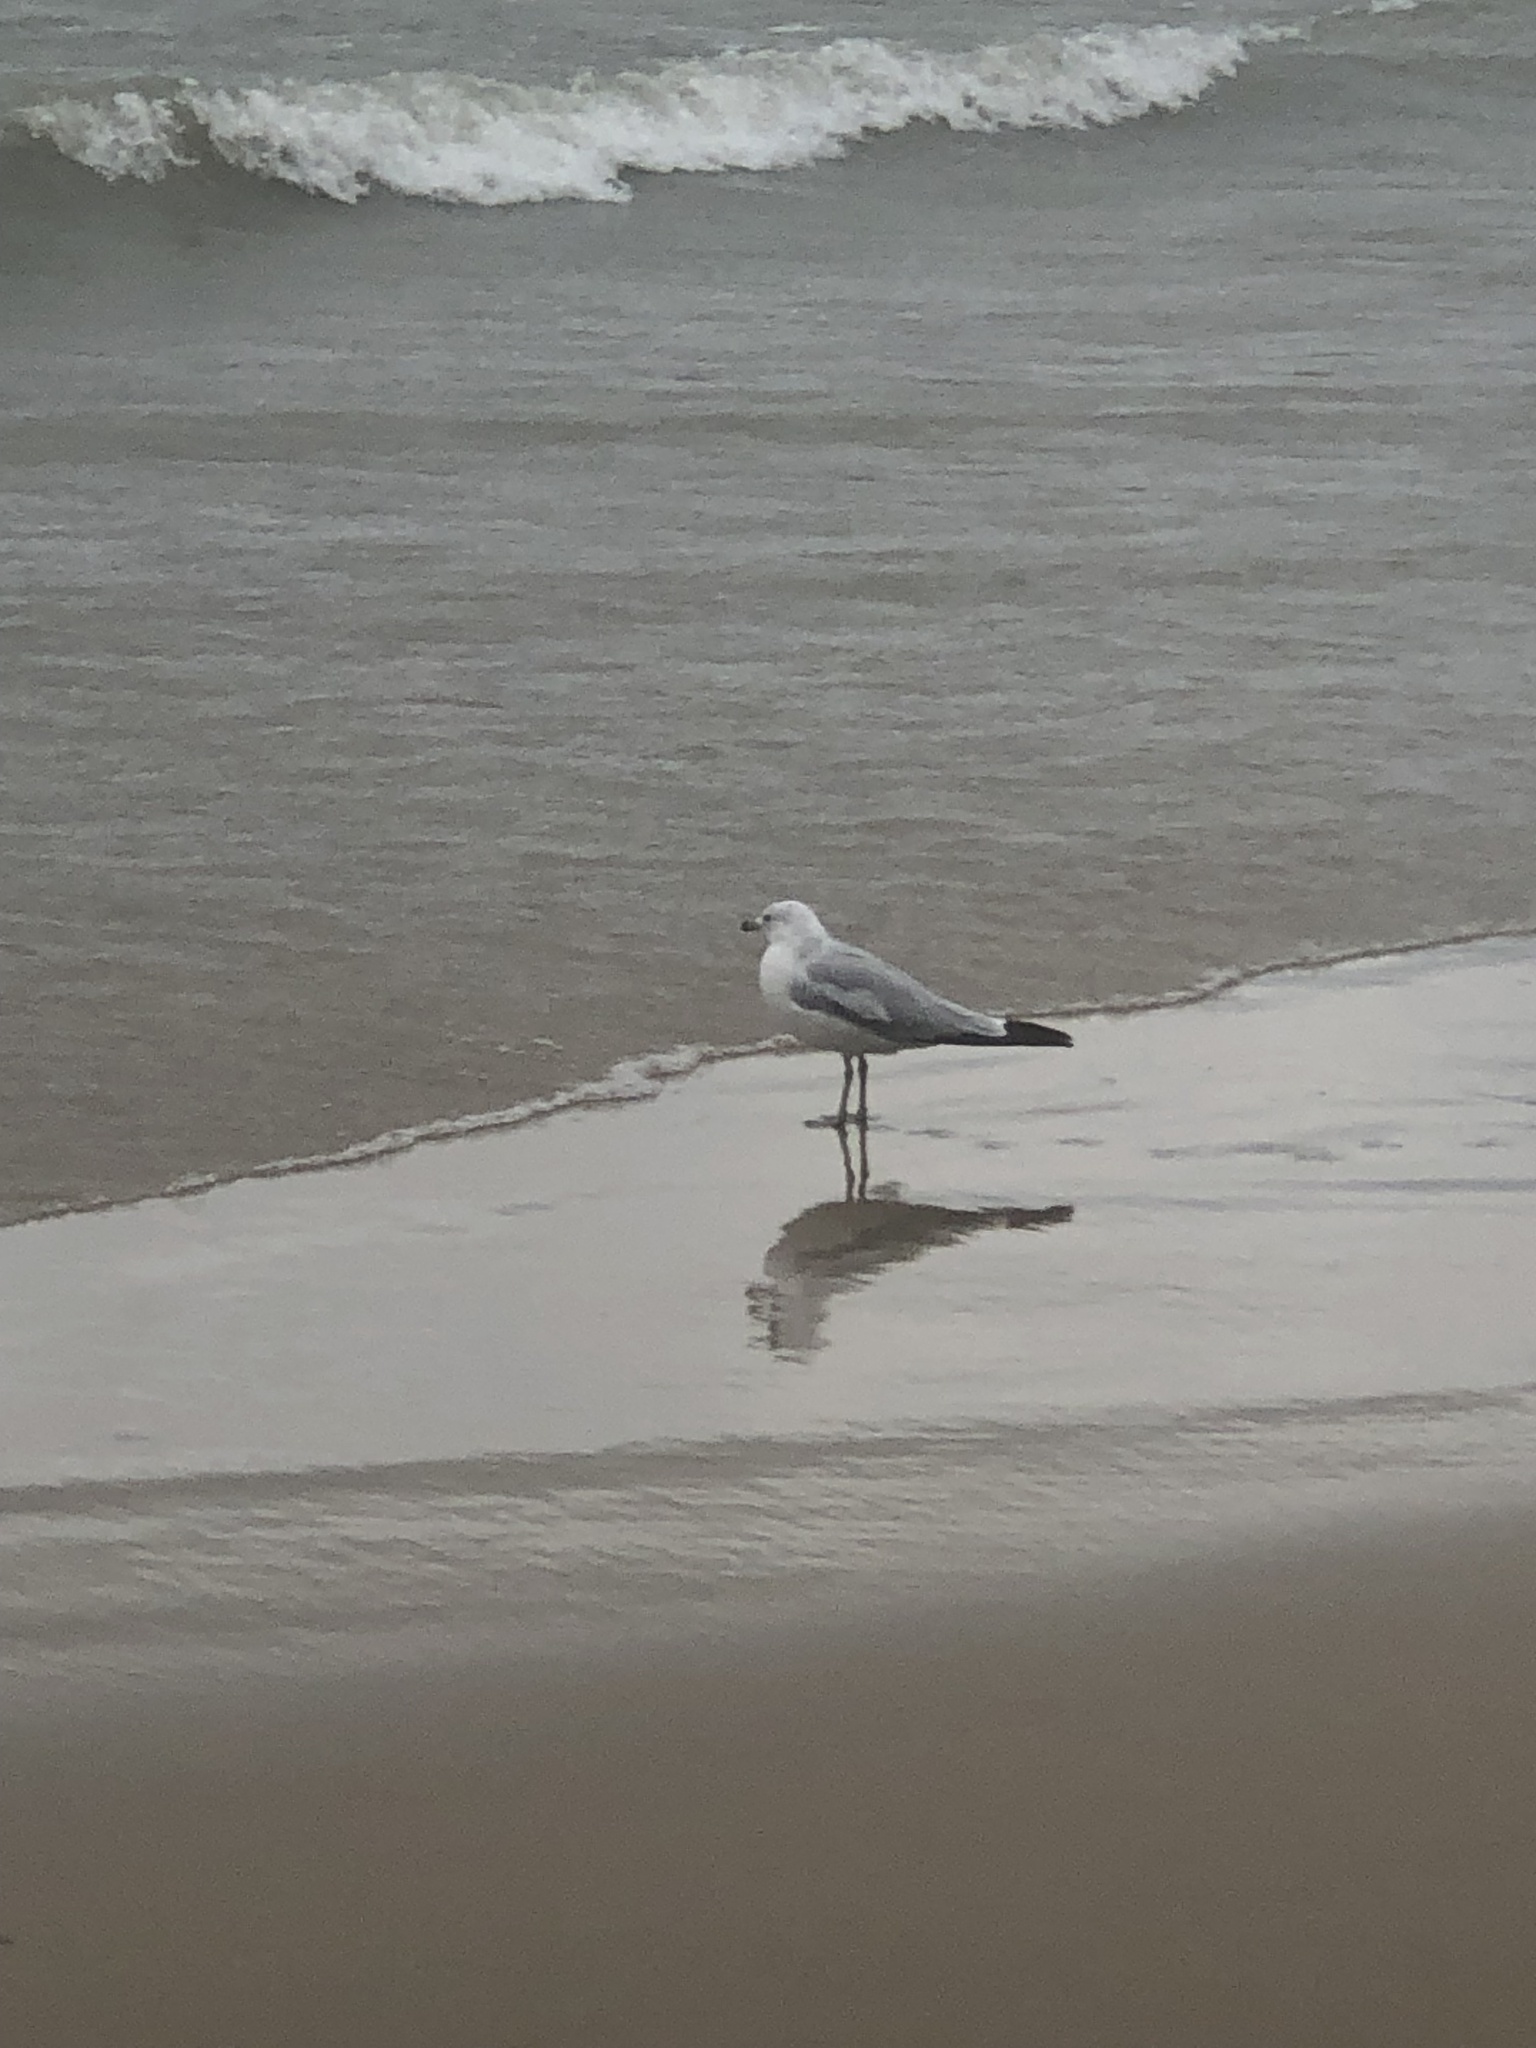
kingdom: Animalia
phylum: Chordata
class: Aves
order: Charadriiformes
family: Laridae
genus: Larus
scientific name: Larus delawarensis
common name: Ring-billed gull
